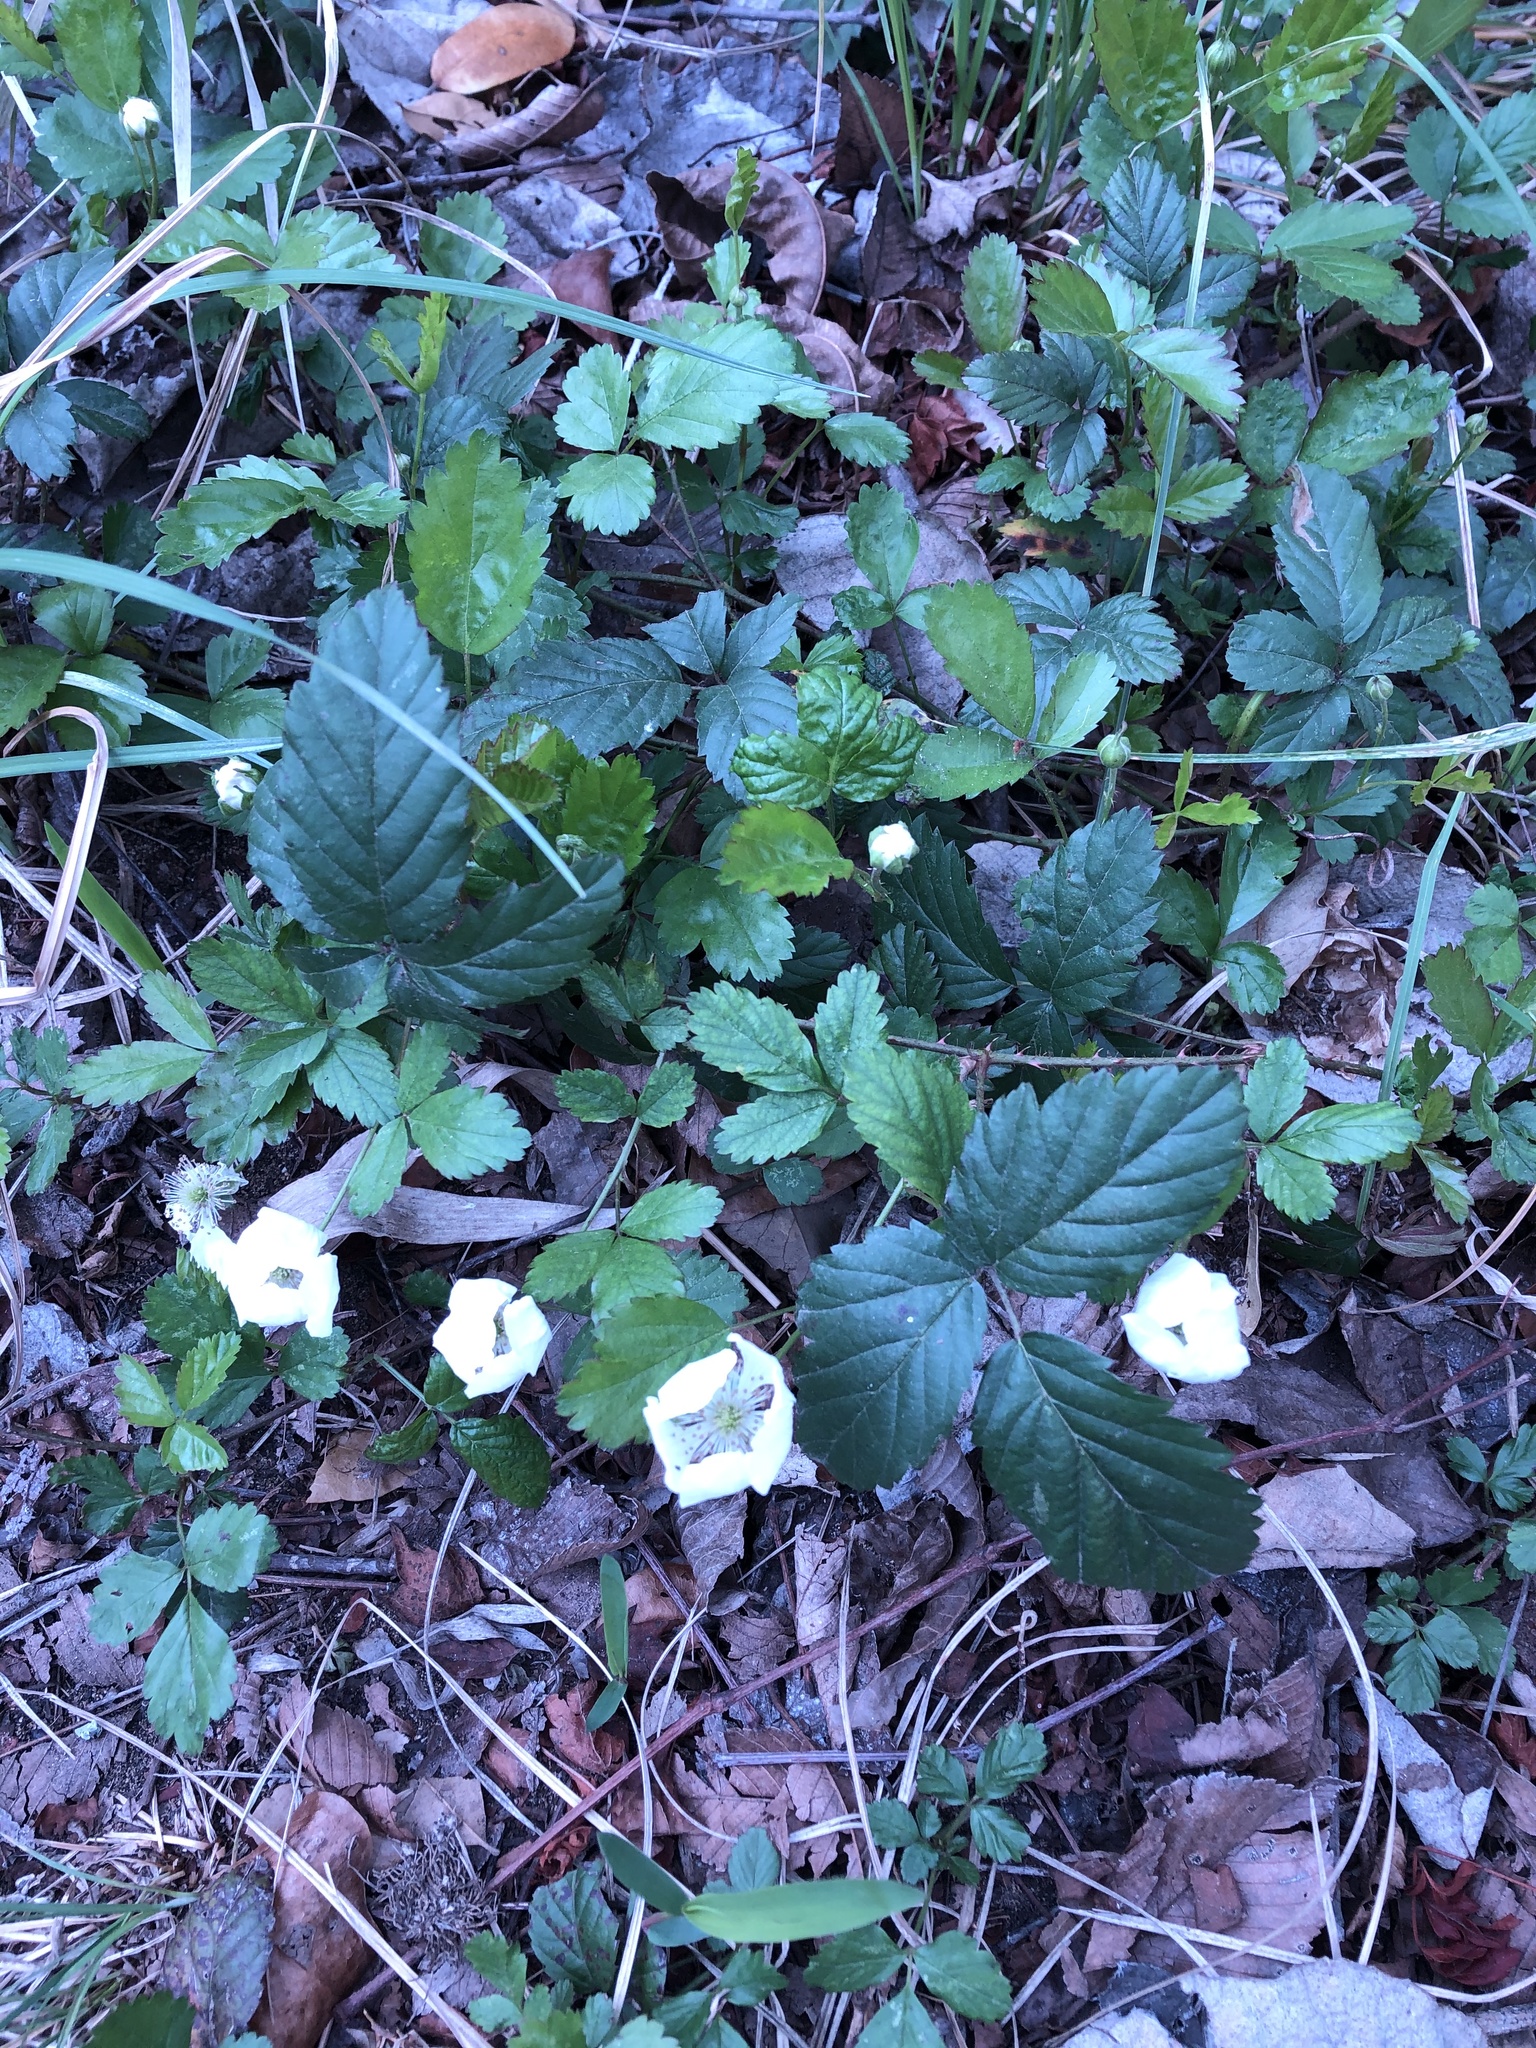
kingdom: Plantae
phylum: Tracheophyta
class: Magnoliopsida
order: Rosales
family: Rosaceae
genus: Rubus
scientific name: Rubus trivialis
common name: Southern dewberry
